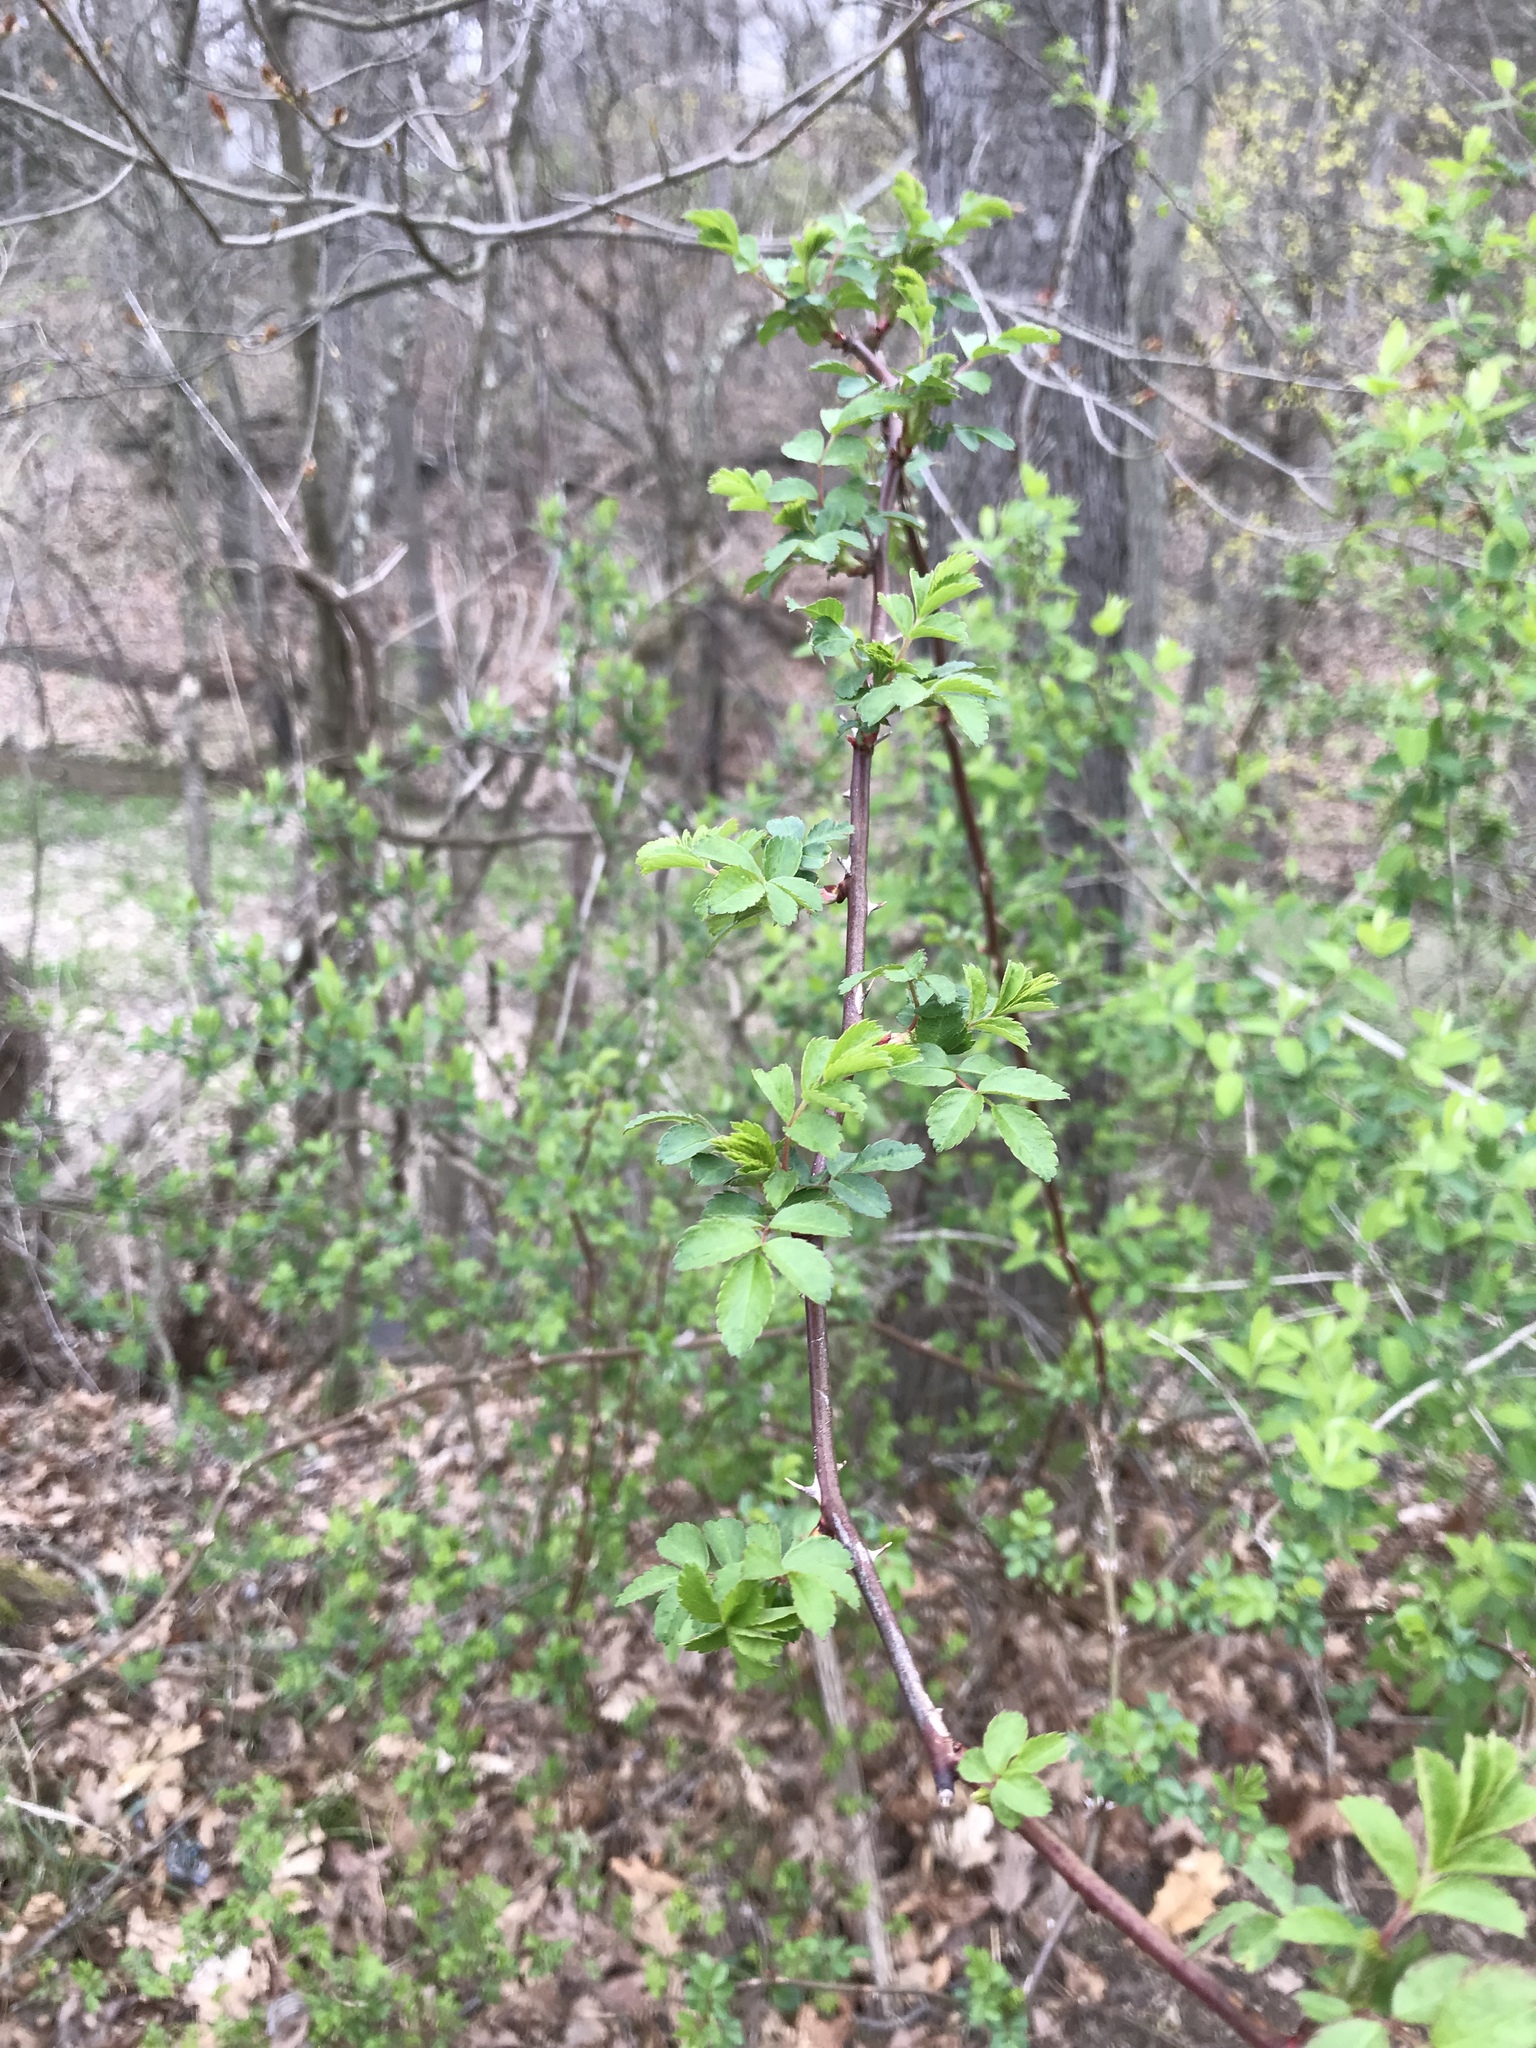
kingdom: Plantae
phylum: Tracheophyta
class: Magnoliopsida
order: Rosales
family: Rosaceae
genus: Rosa
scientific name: Rosa multiflora
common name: Multiflora rose
